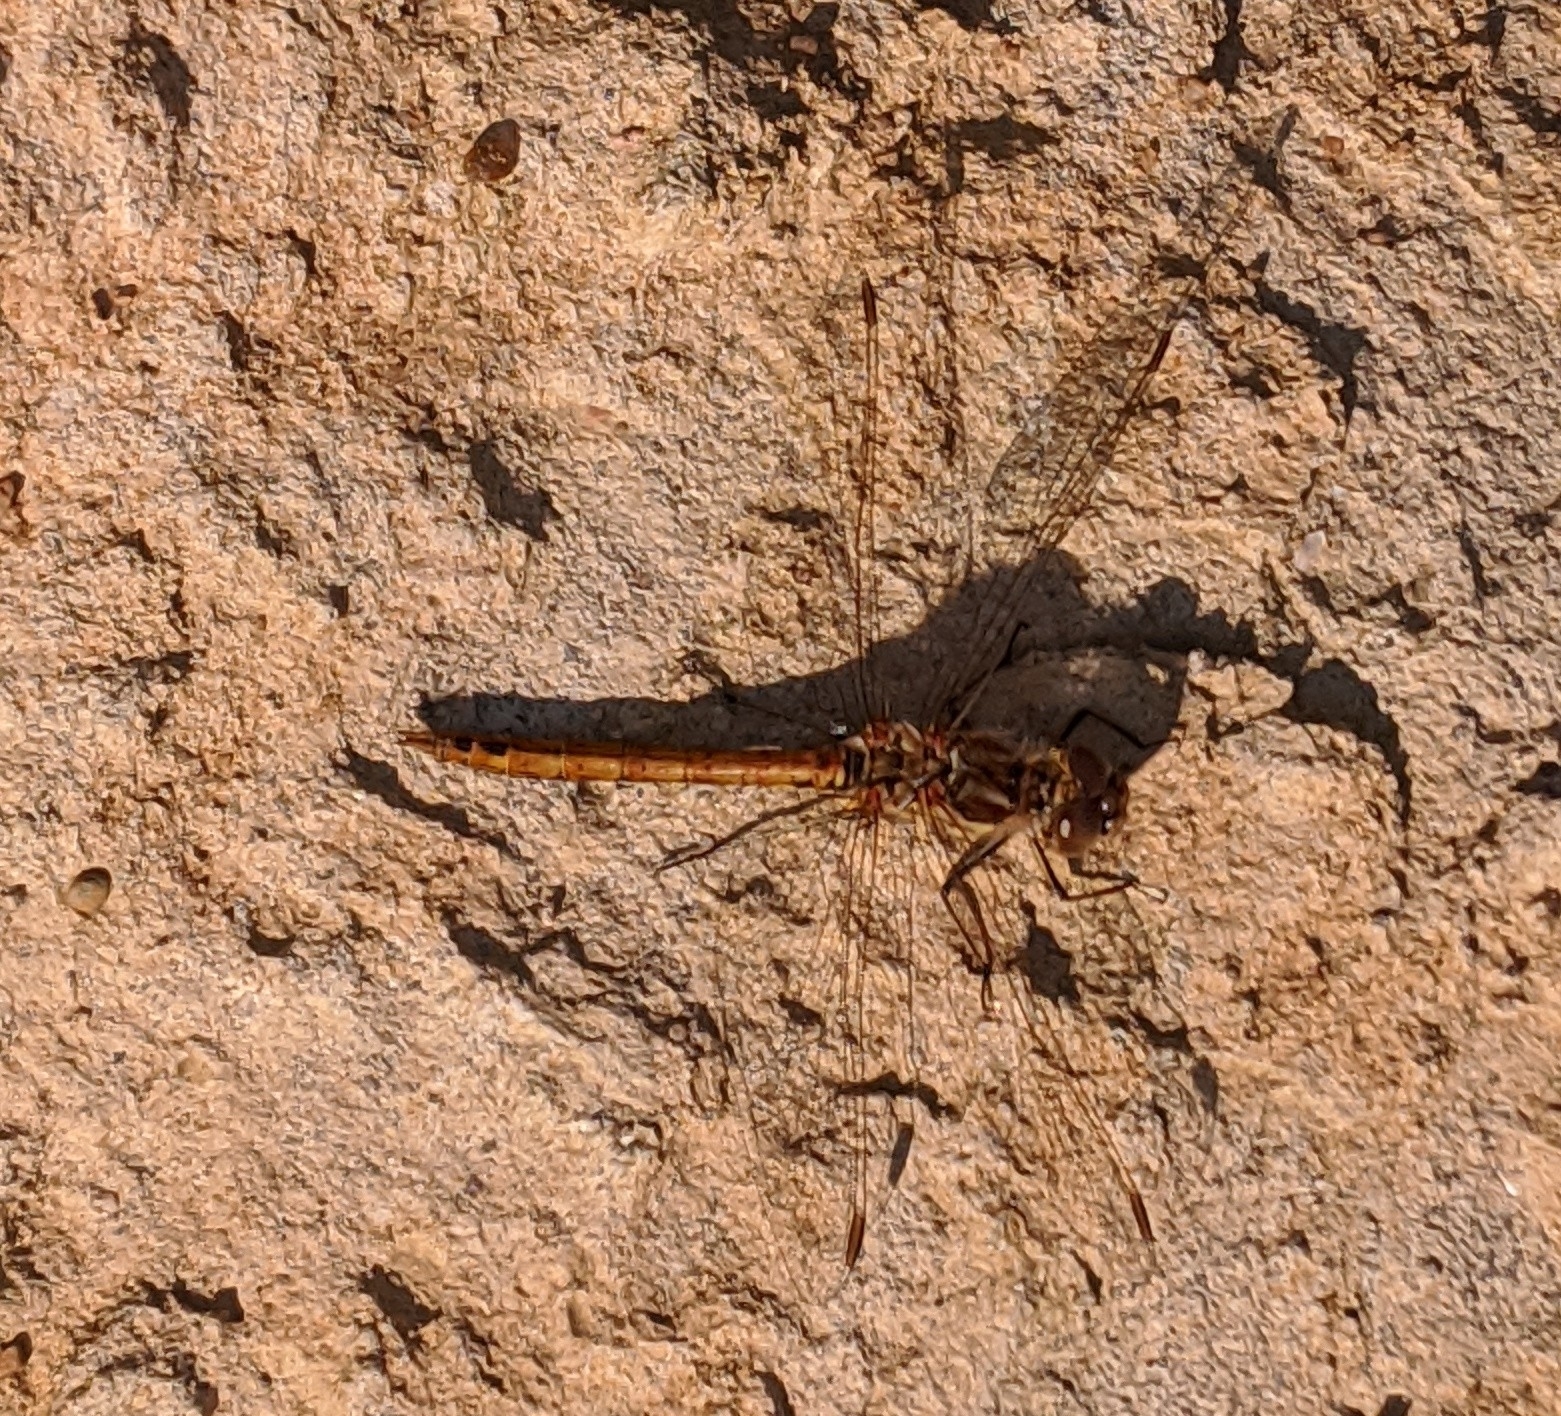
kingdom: Animalia
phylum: Arthropoda
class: Insecta
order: Odonata
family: Libellulidae
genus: Sympetrum
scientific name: Sympetrum vulgatum
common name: Vagrant darter
